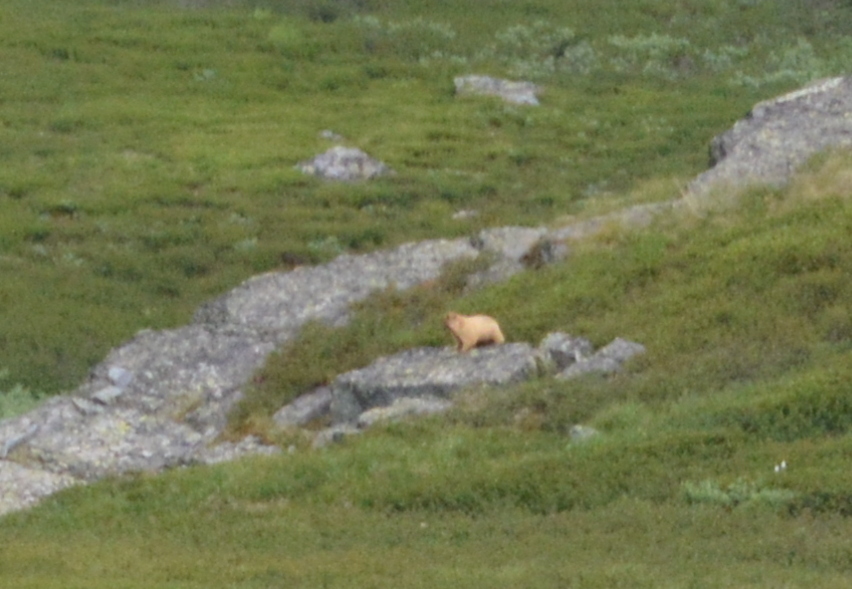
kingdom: Animalia
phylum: Chordata
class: Mammalia
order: Rodentia
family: Sciuridae
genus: Marmota
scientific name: Marmota baibacina
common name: Gray marmot
